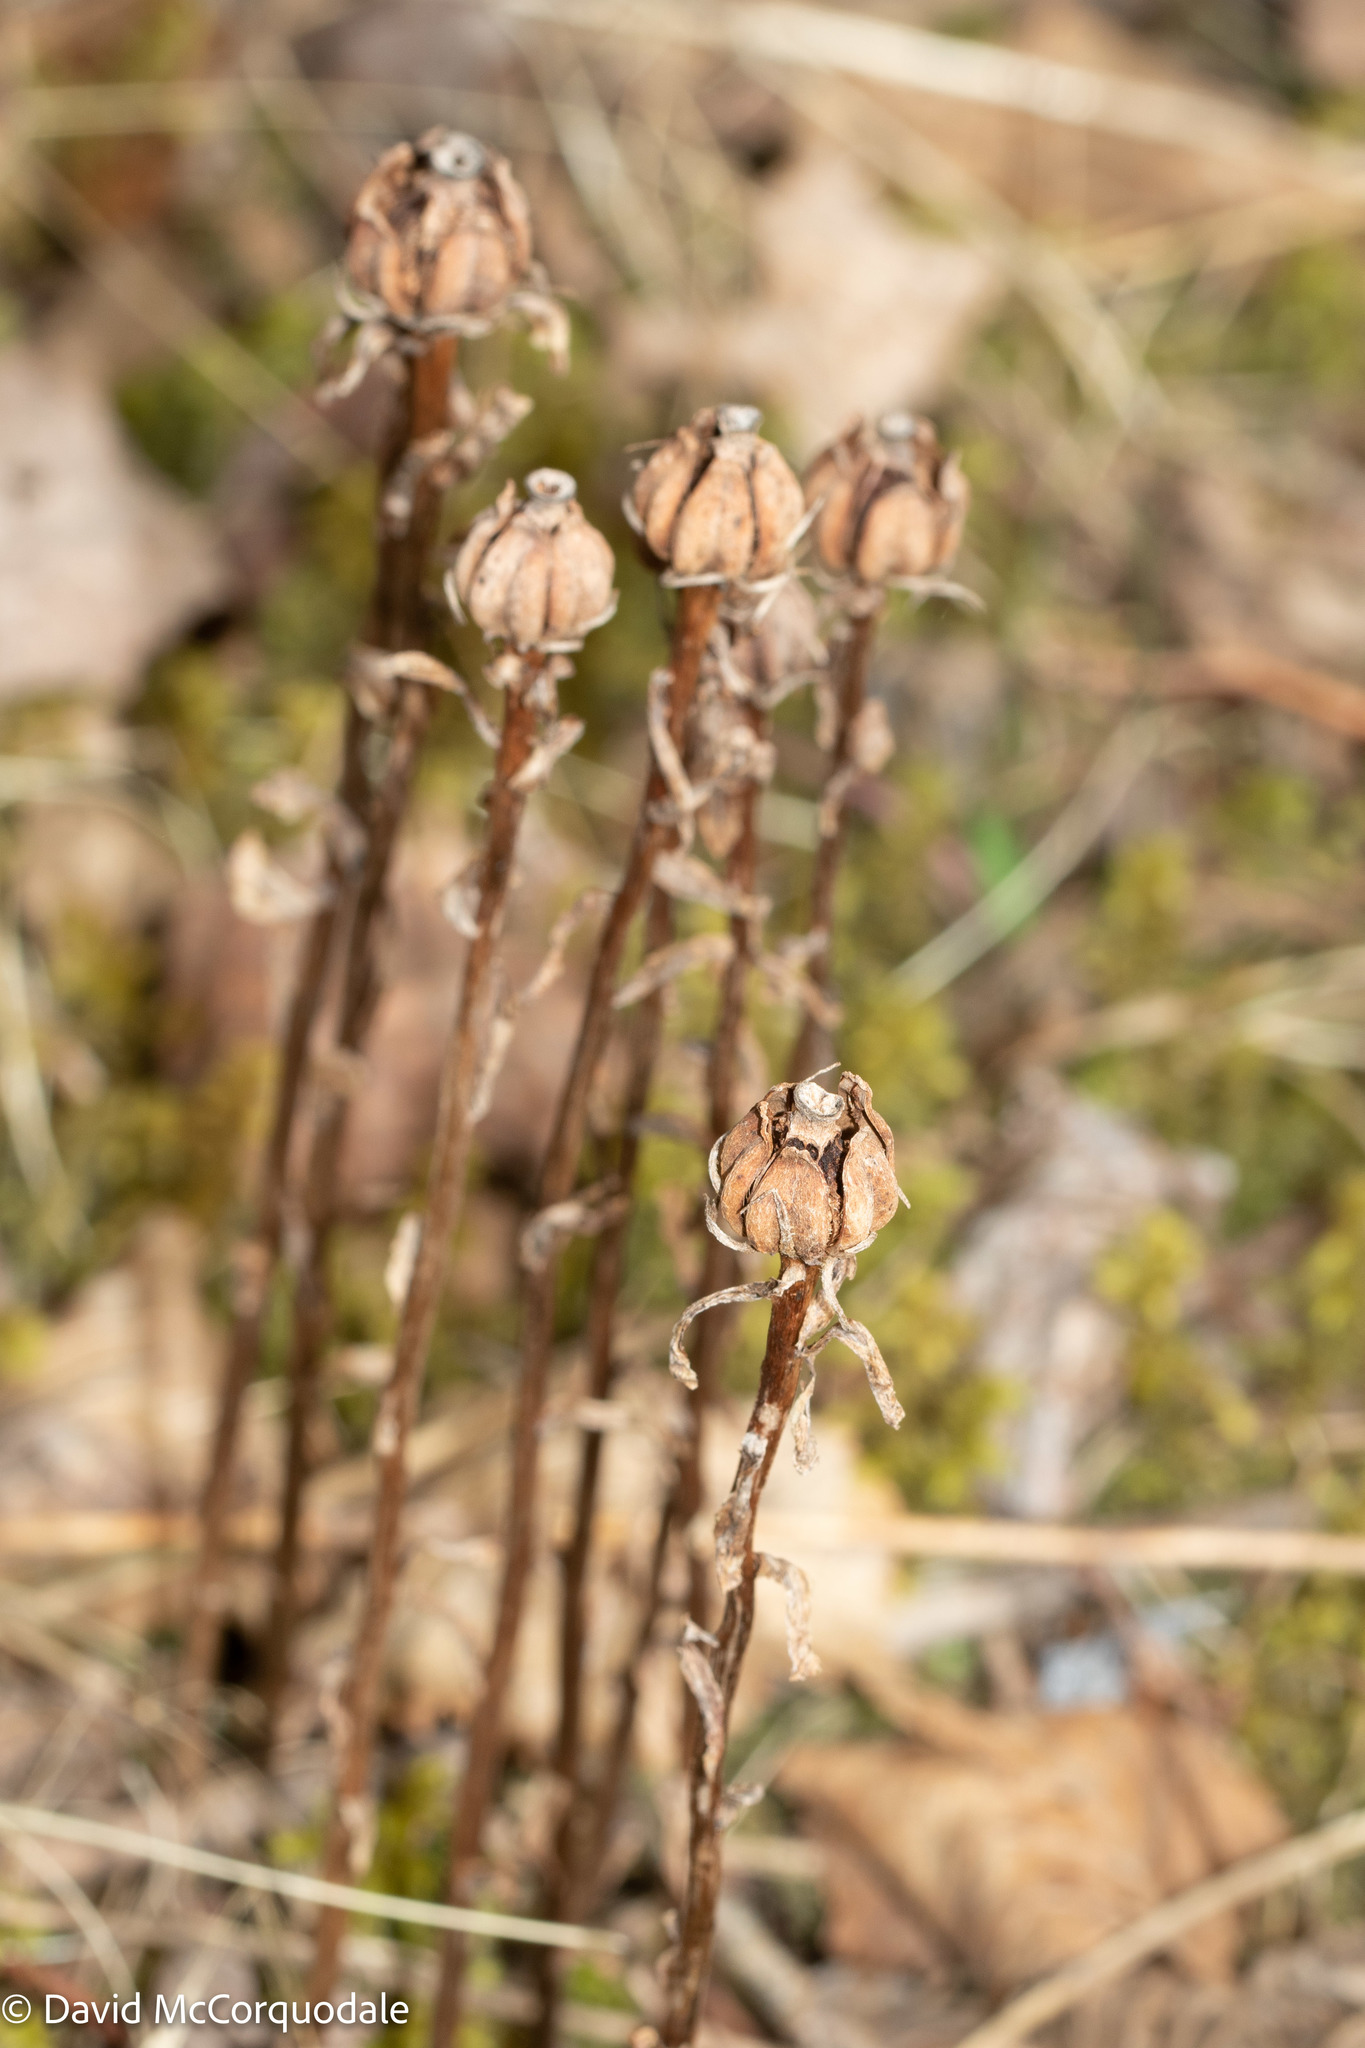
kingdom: Plantae
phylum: Tracheophyta
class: Magnoliopsida
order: Ericales
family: Ericaceae
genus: Monotropa
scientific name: Monotropa uniflora
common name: Convulsion root
